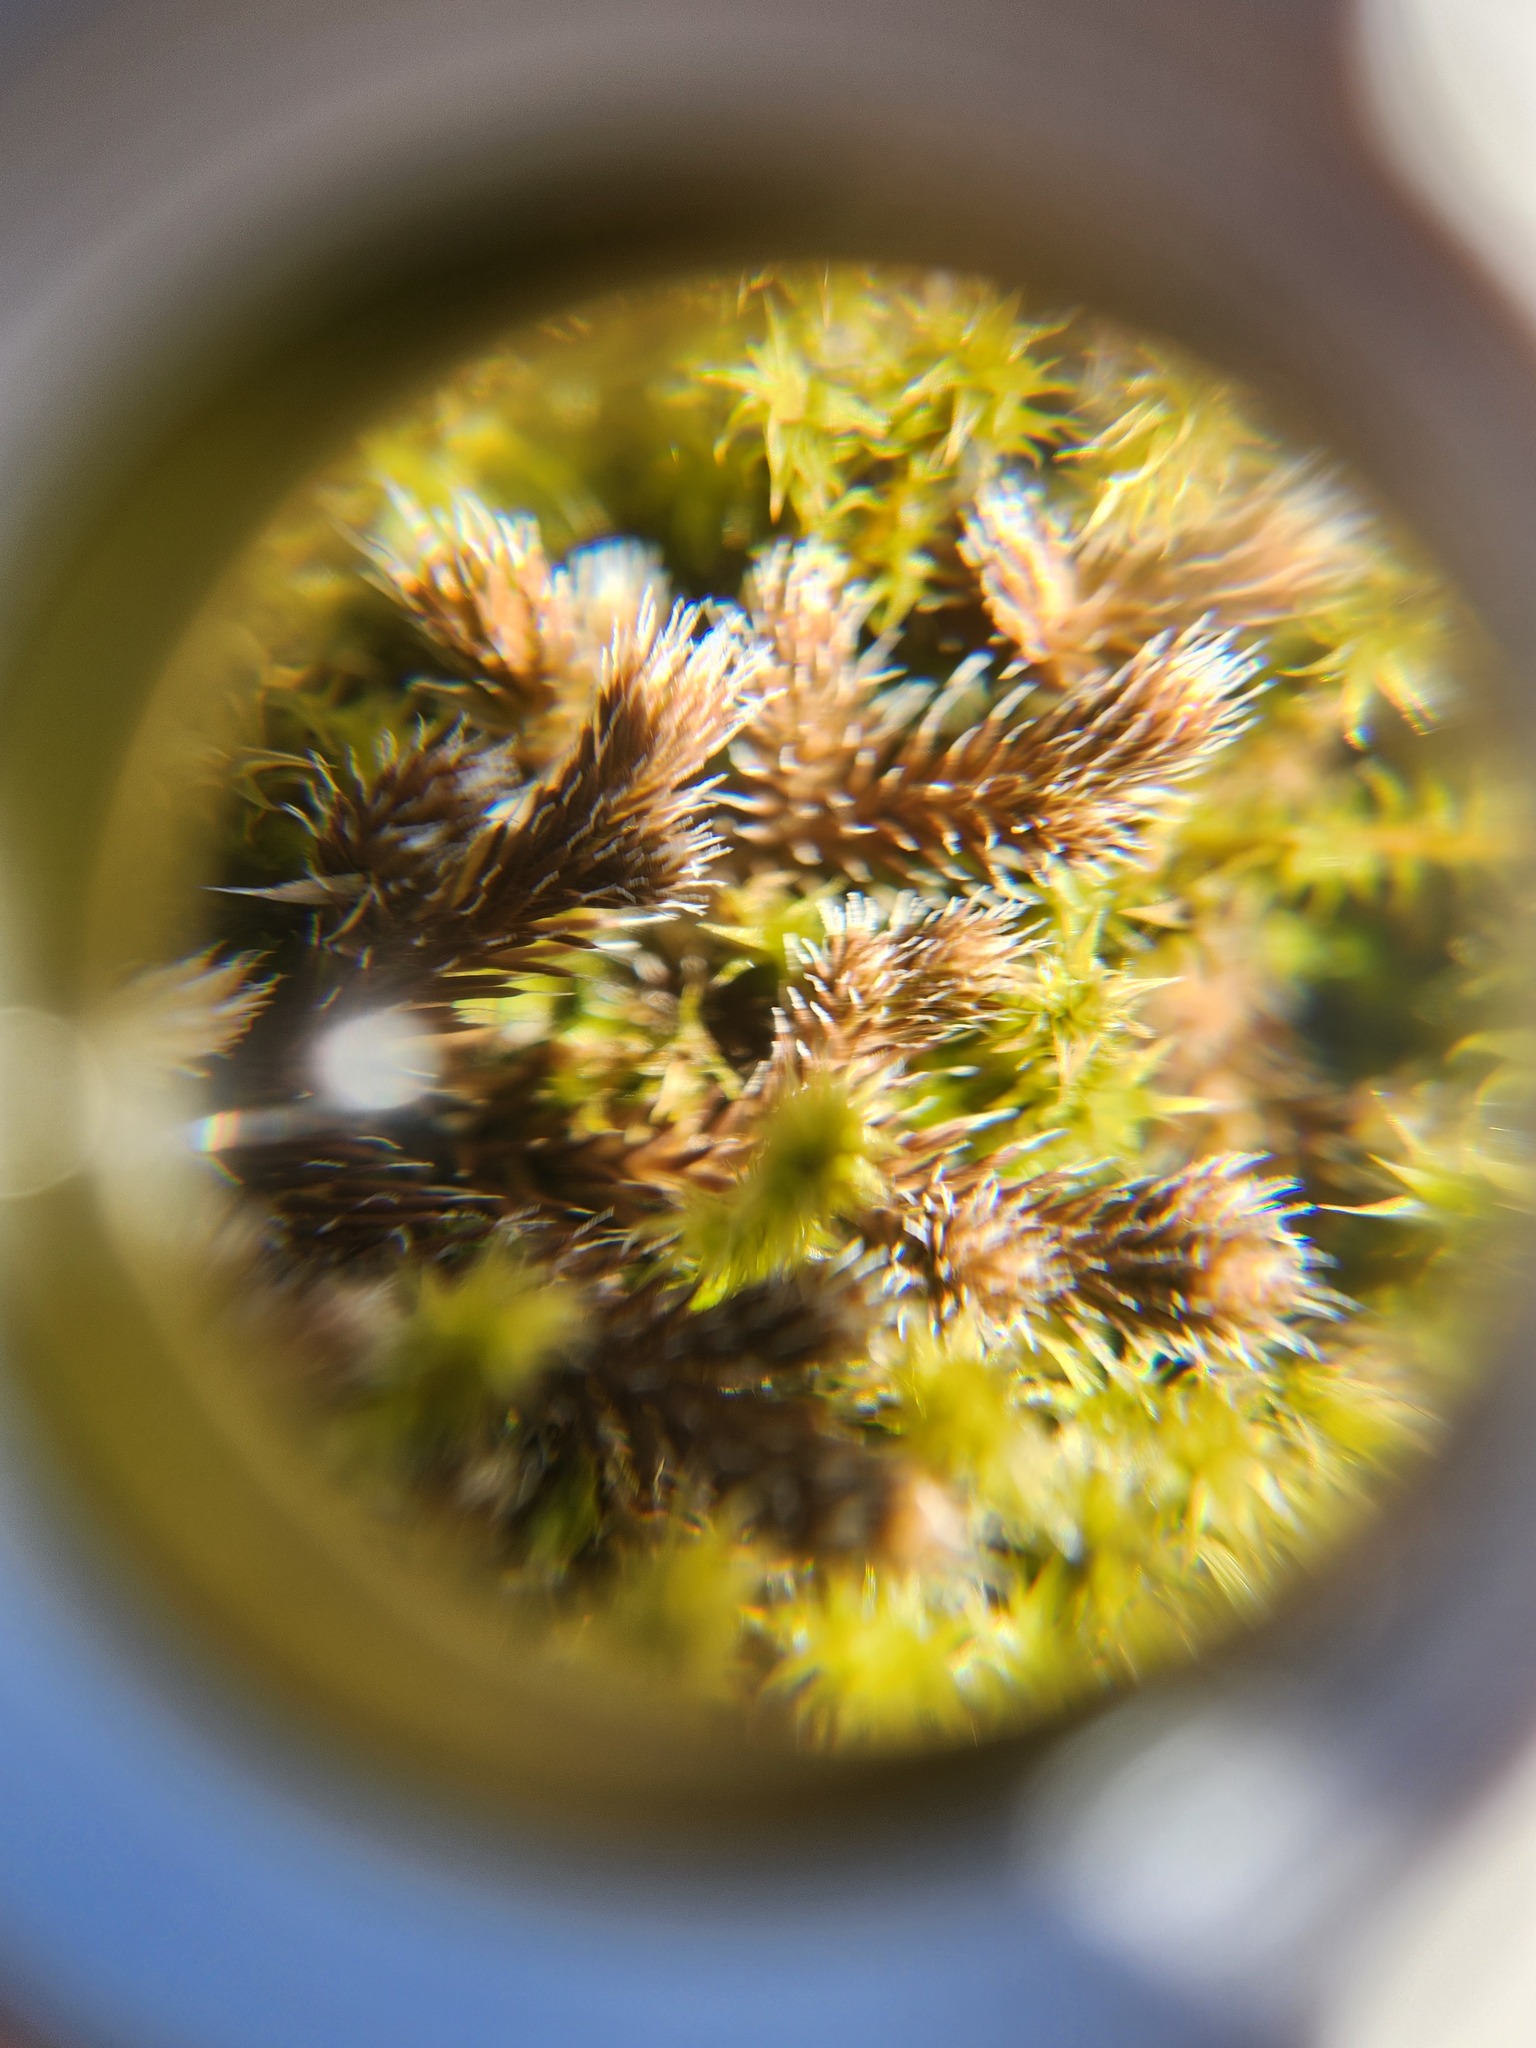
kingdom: Plantae
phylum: Tracheophyta
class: Lycopodiopsida
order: Selaginellales
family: Selaginellaceae
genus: Selaginella
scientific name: Selaginella rupestris
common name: Dwarf spikemoss
